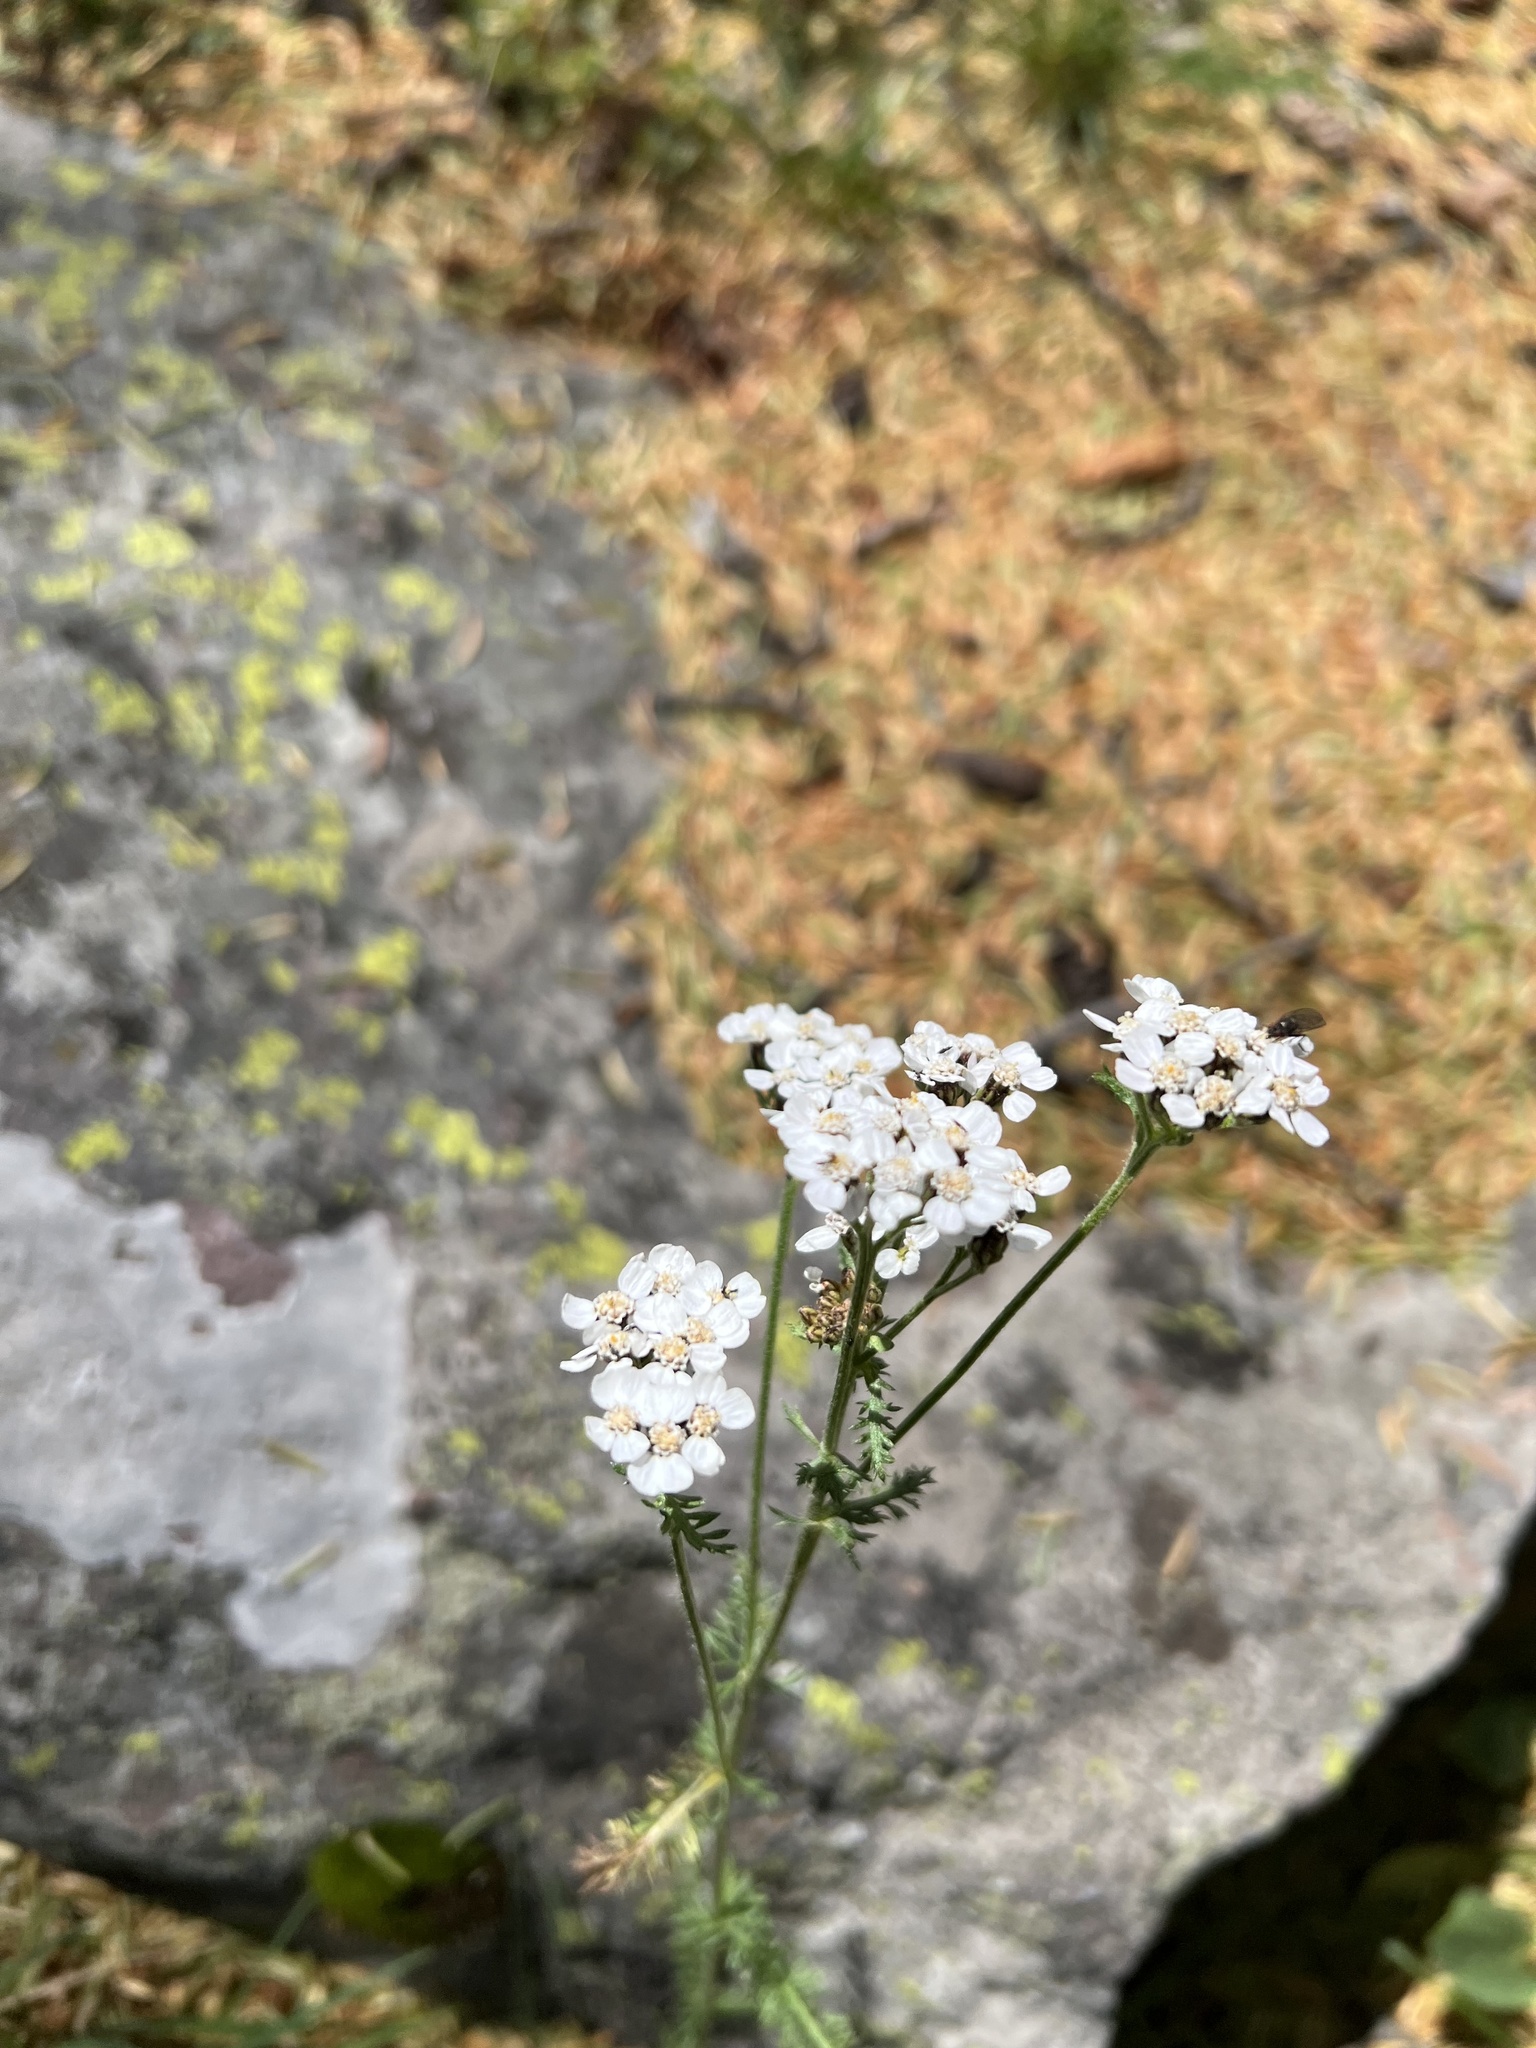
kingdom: Plantae
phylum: Tracheophyta
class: Magnoliopsida
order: Asterales
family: Asteraceae
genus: Achillea
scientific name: Achillea millefolium
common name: Yarrow
